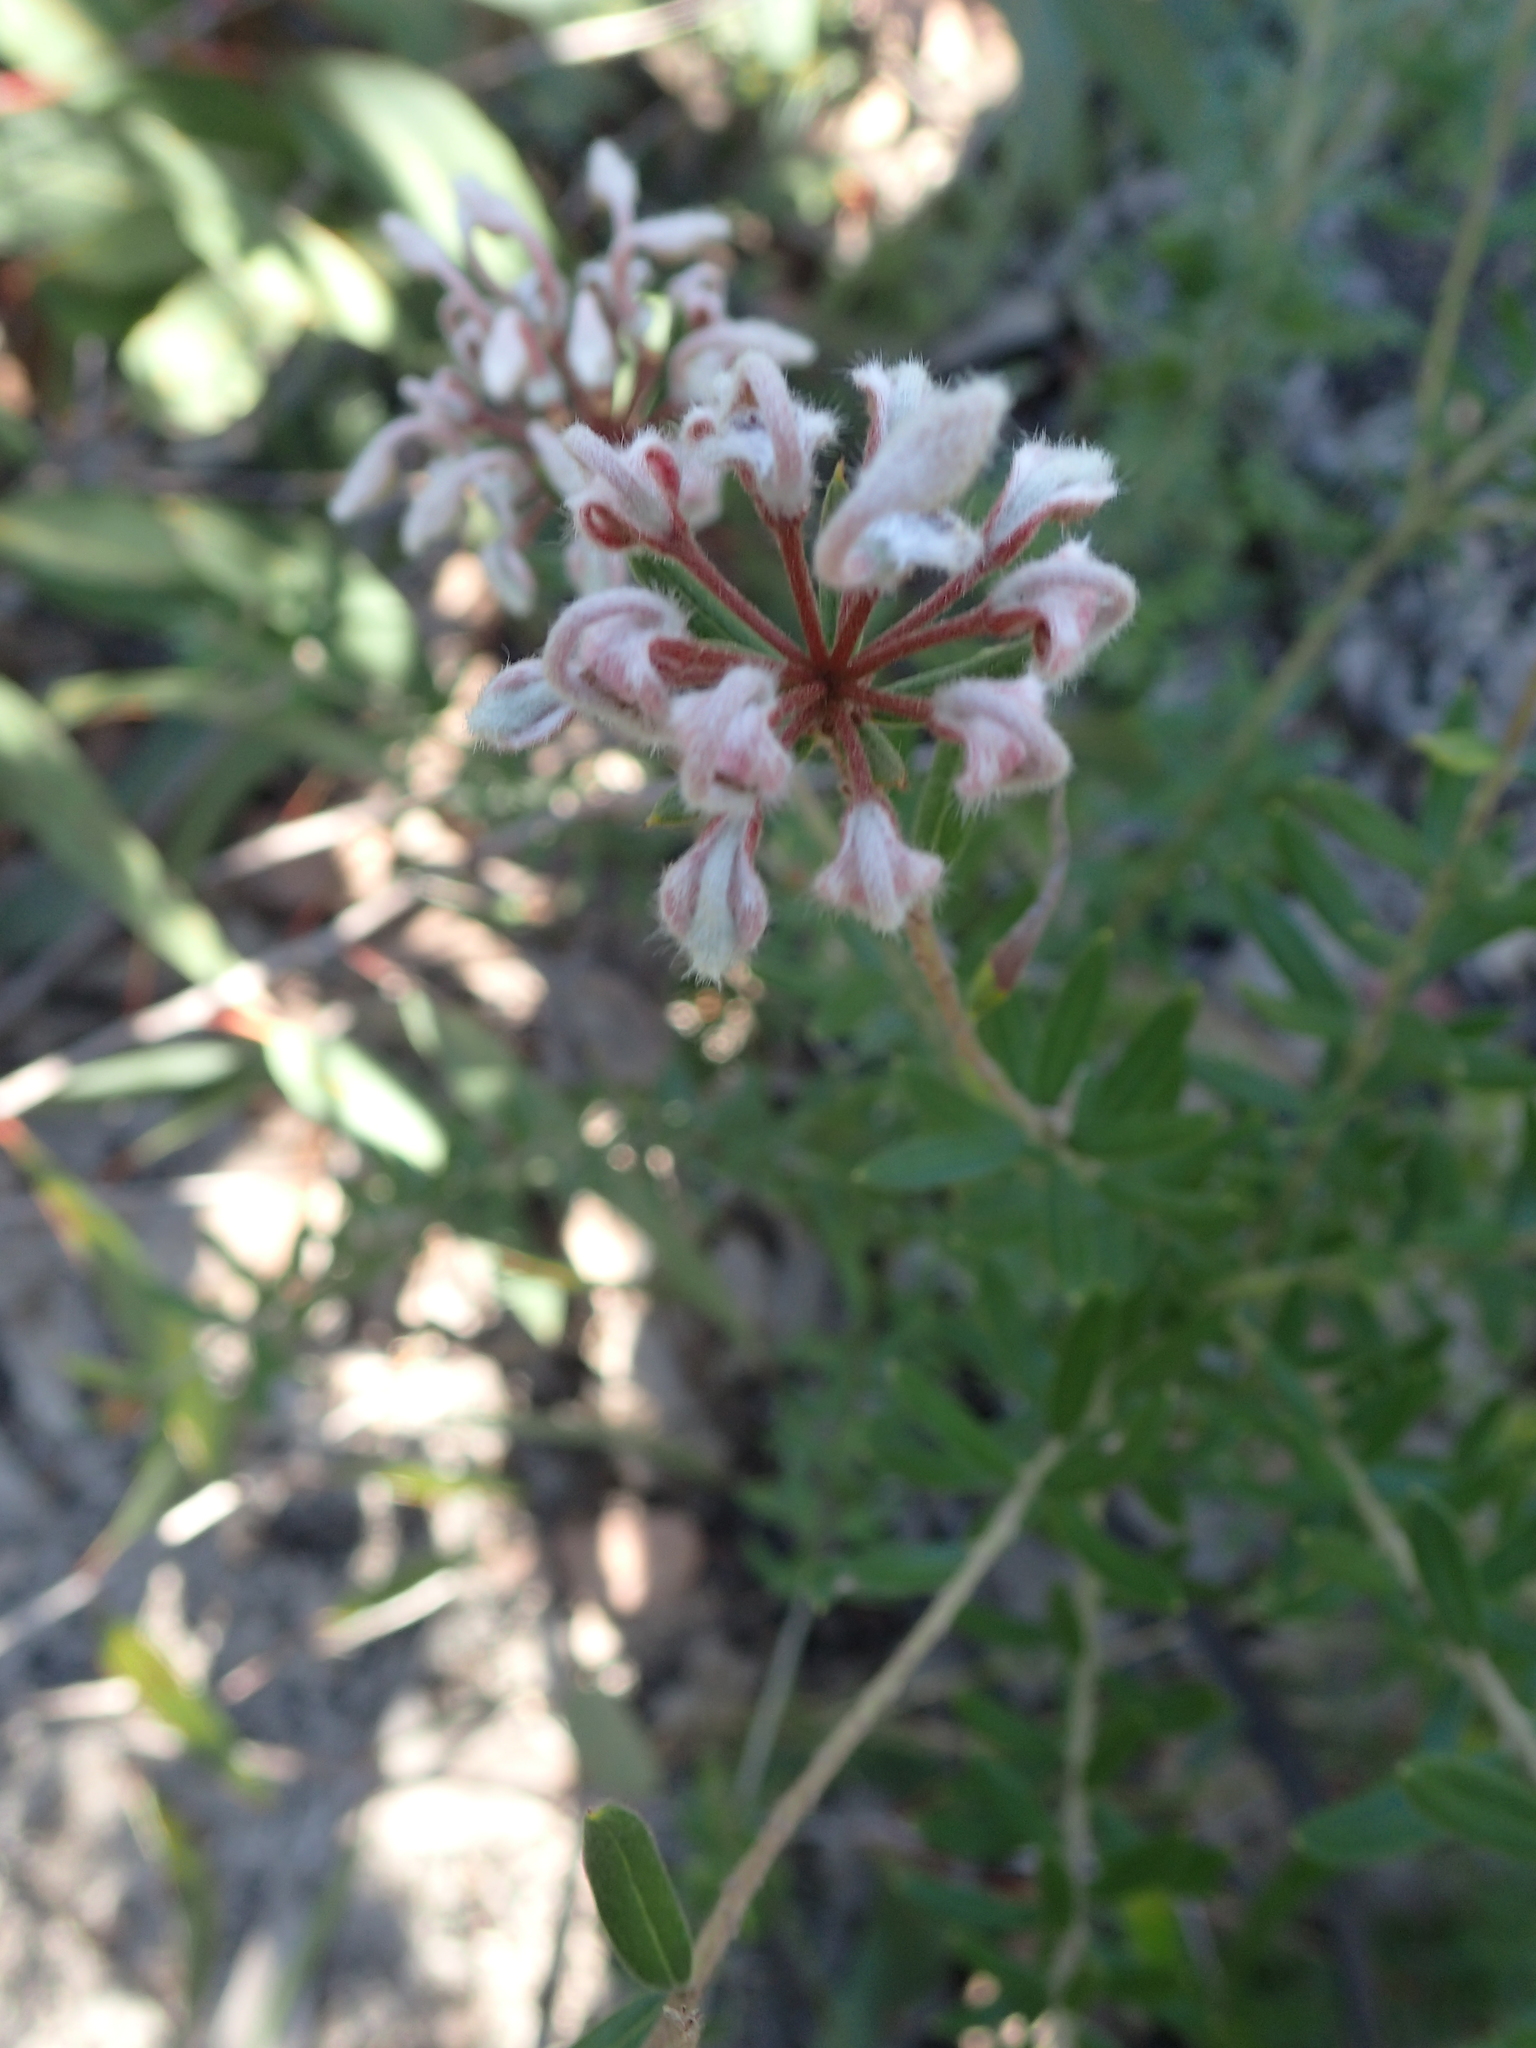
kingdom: Plantae
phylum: Tracheophyta
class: Magnoliopsida
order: Proteales
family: Proteaceae
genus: Grevillea
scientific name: Grevillea buxifolia
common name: Grey spiderflower
